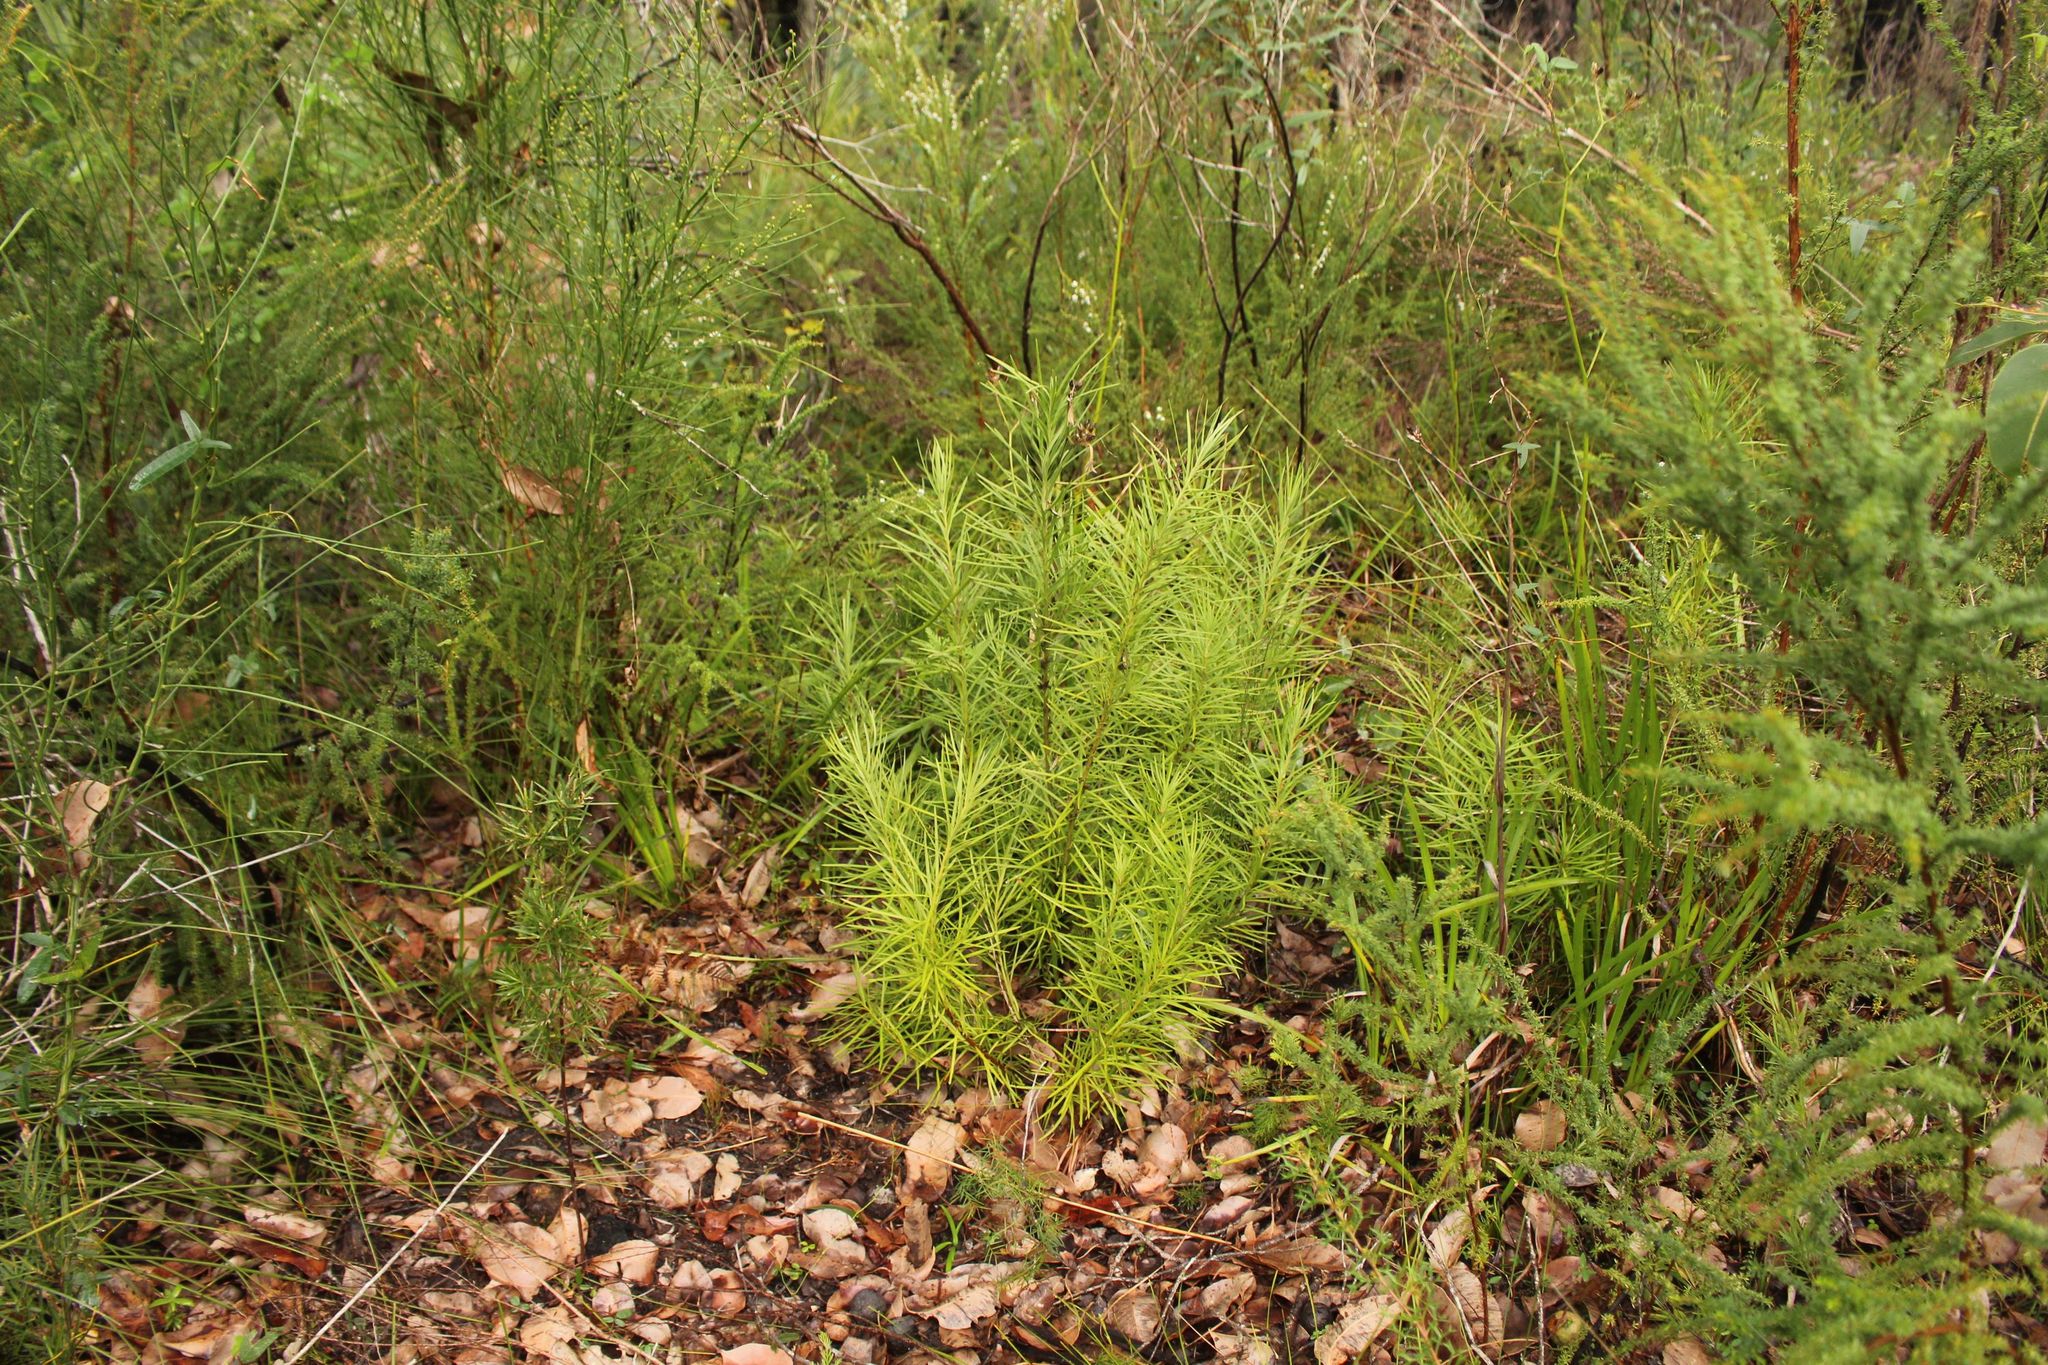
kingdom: Plantae
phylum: Tracheophyta
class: Pinopsida
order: Pinales
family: Podocarpaceae
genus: Podocarpus
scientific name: Podocarpus drouynianus
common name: Emu berry
